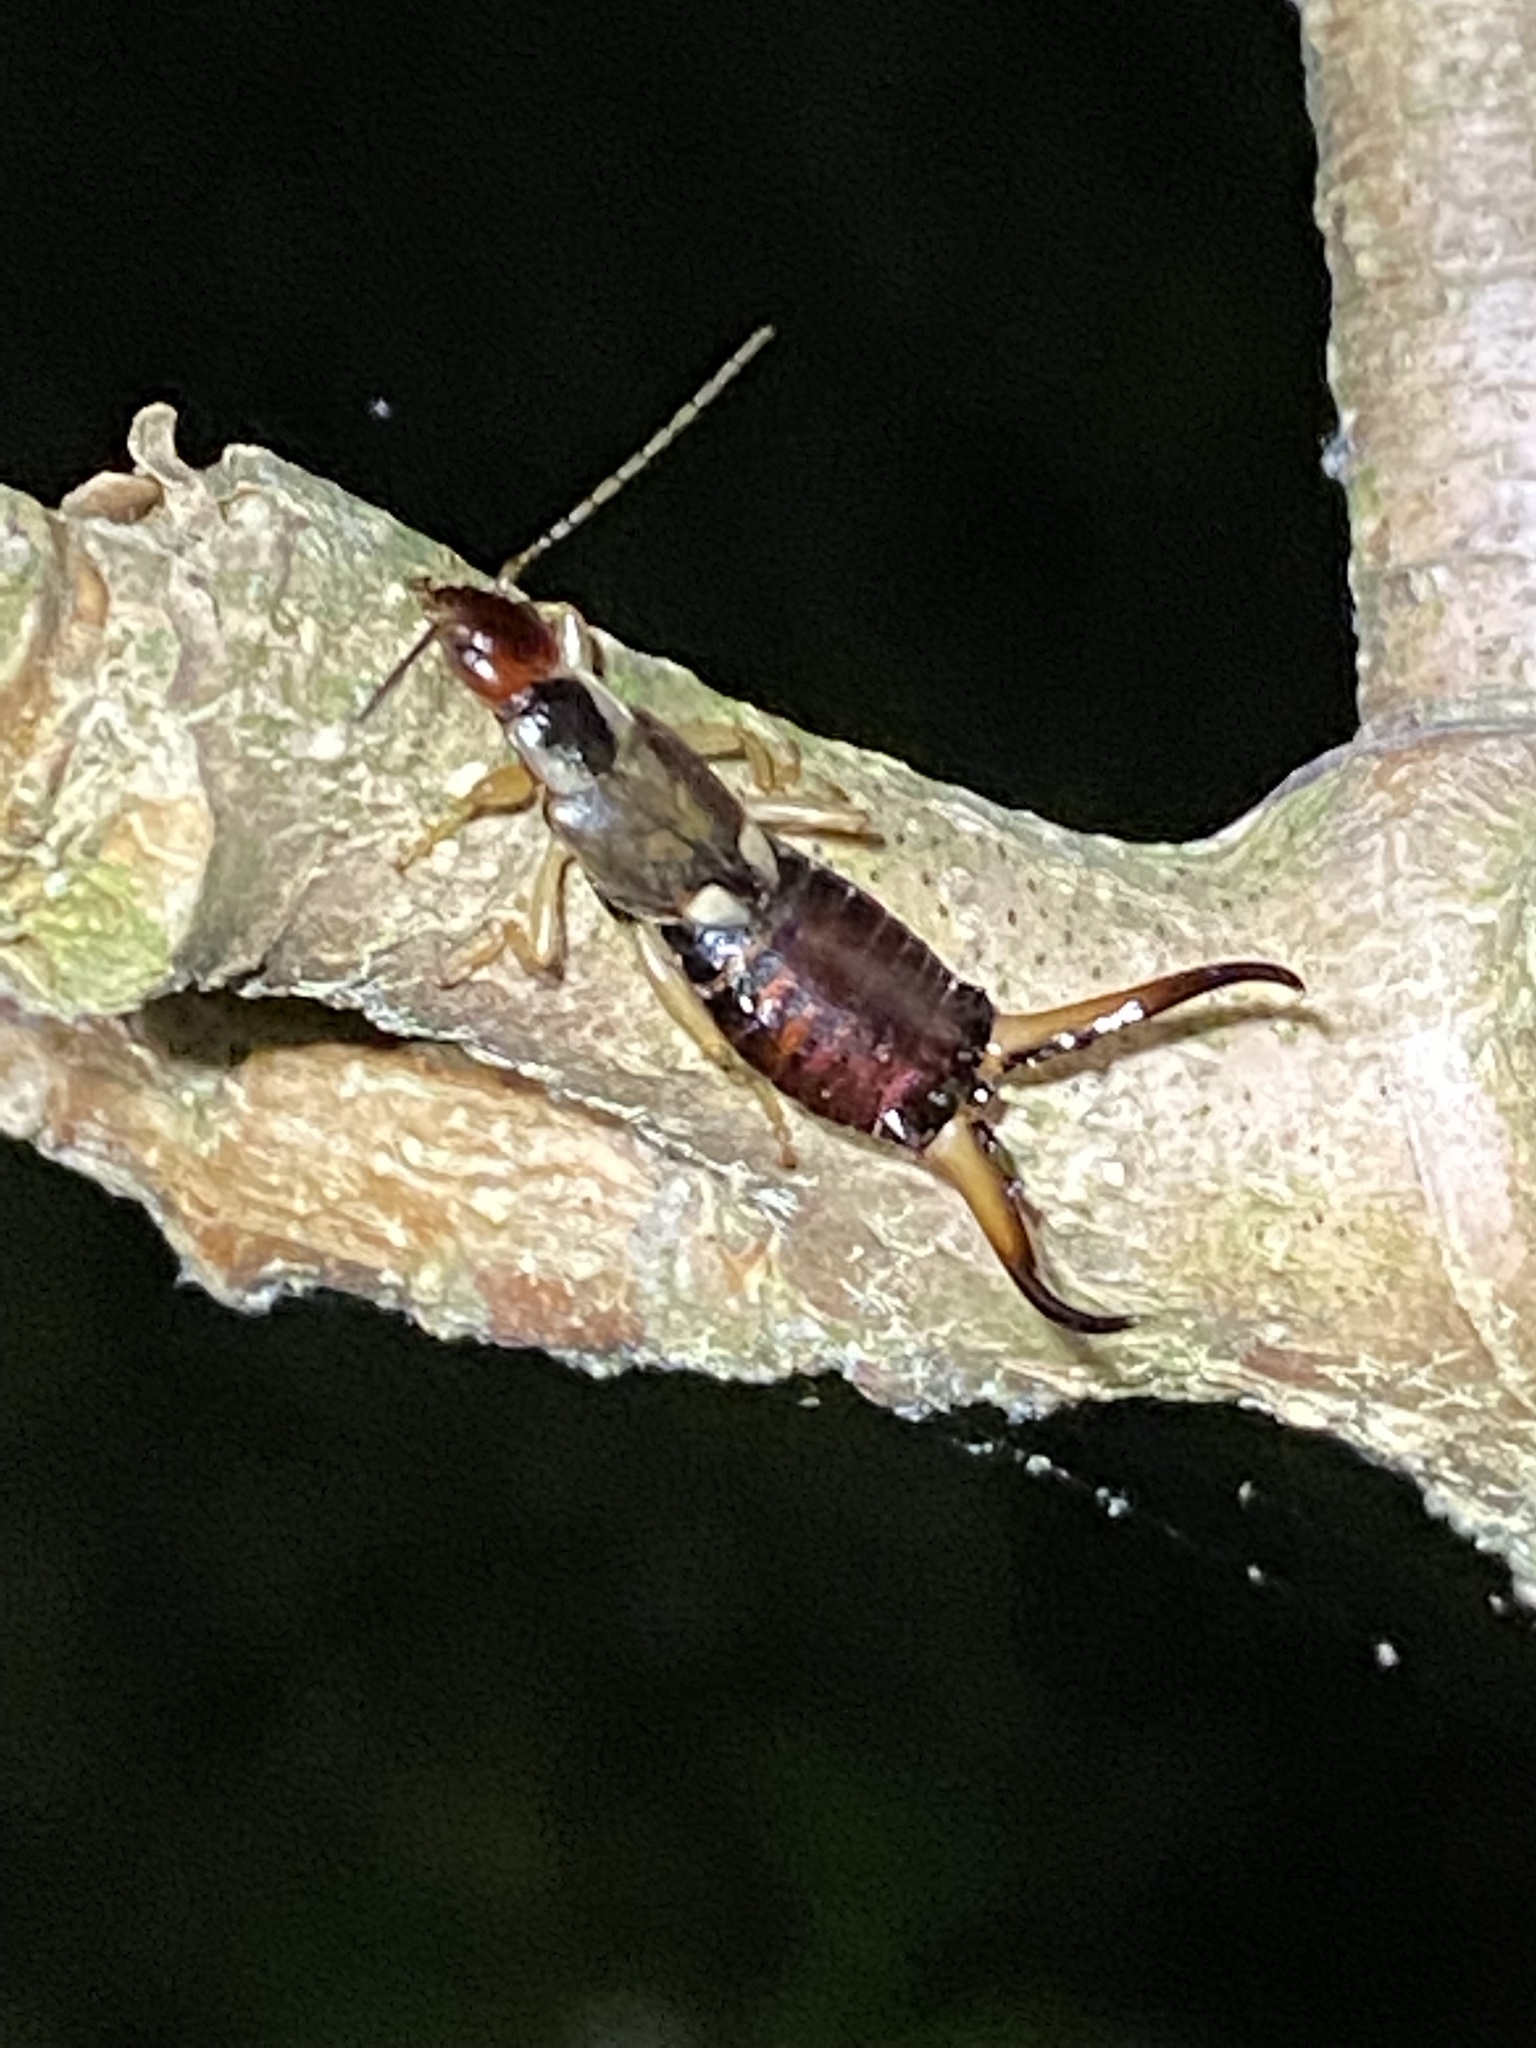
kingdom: Animalia
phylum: Arthropoda
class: Insecta
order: Dermaptera
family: Forficulidae
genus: Forficula
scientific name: Forficula
